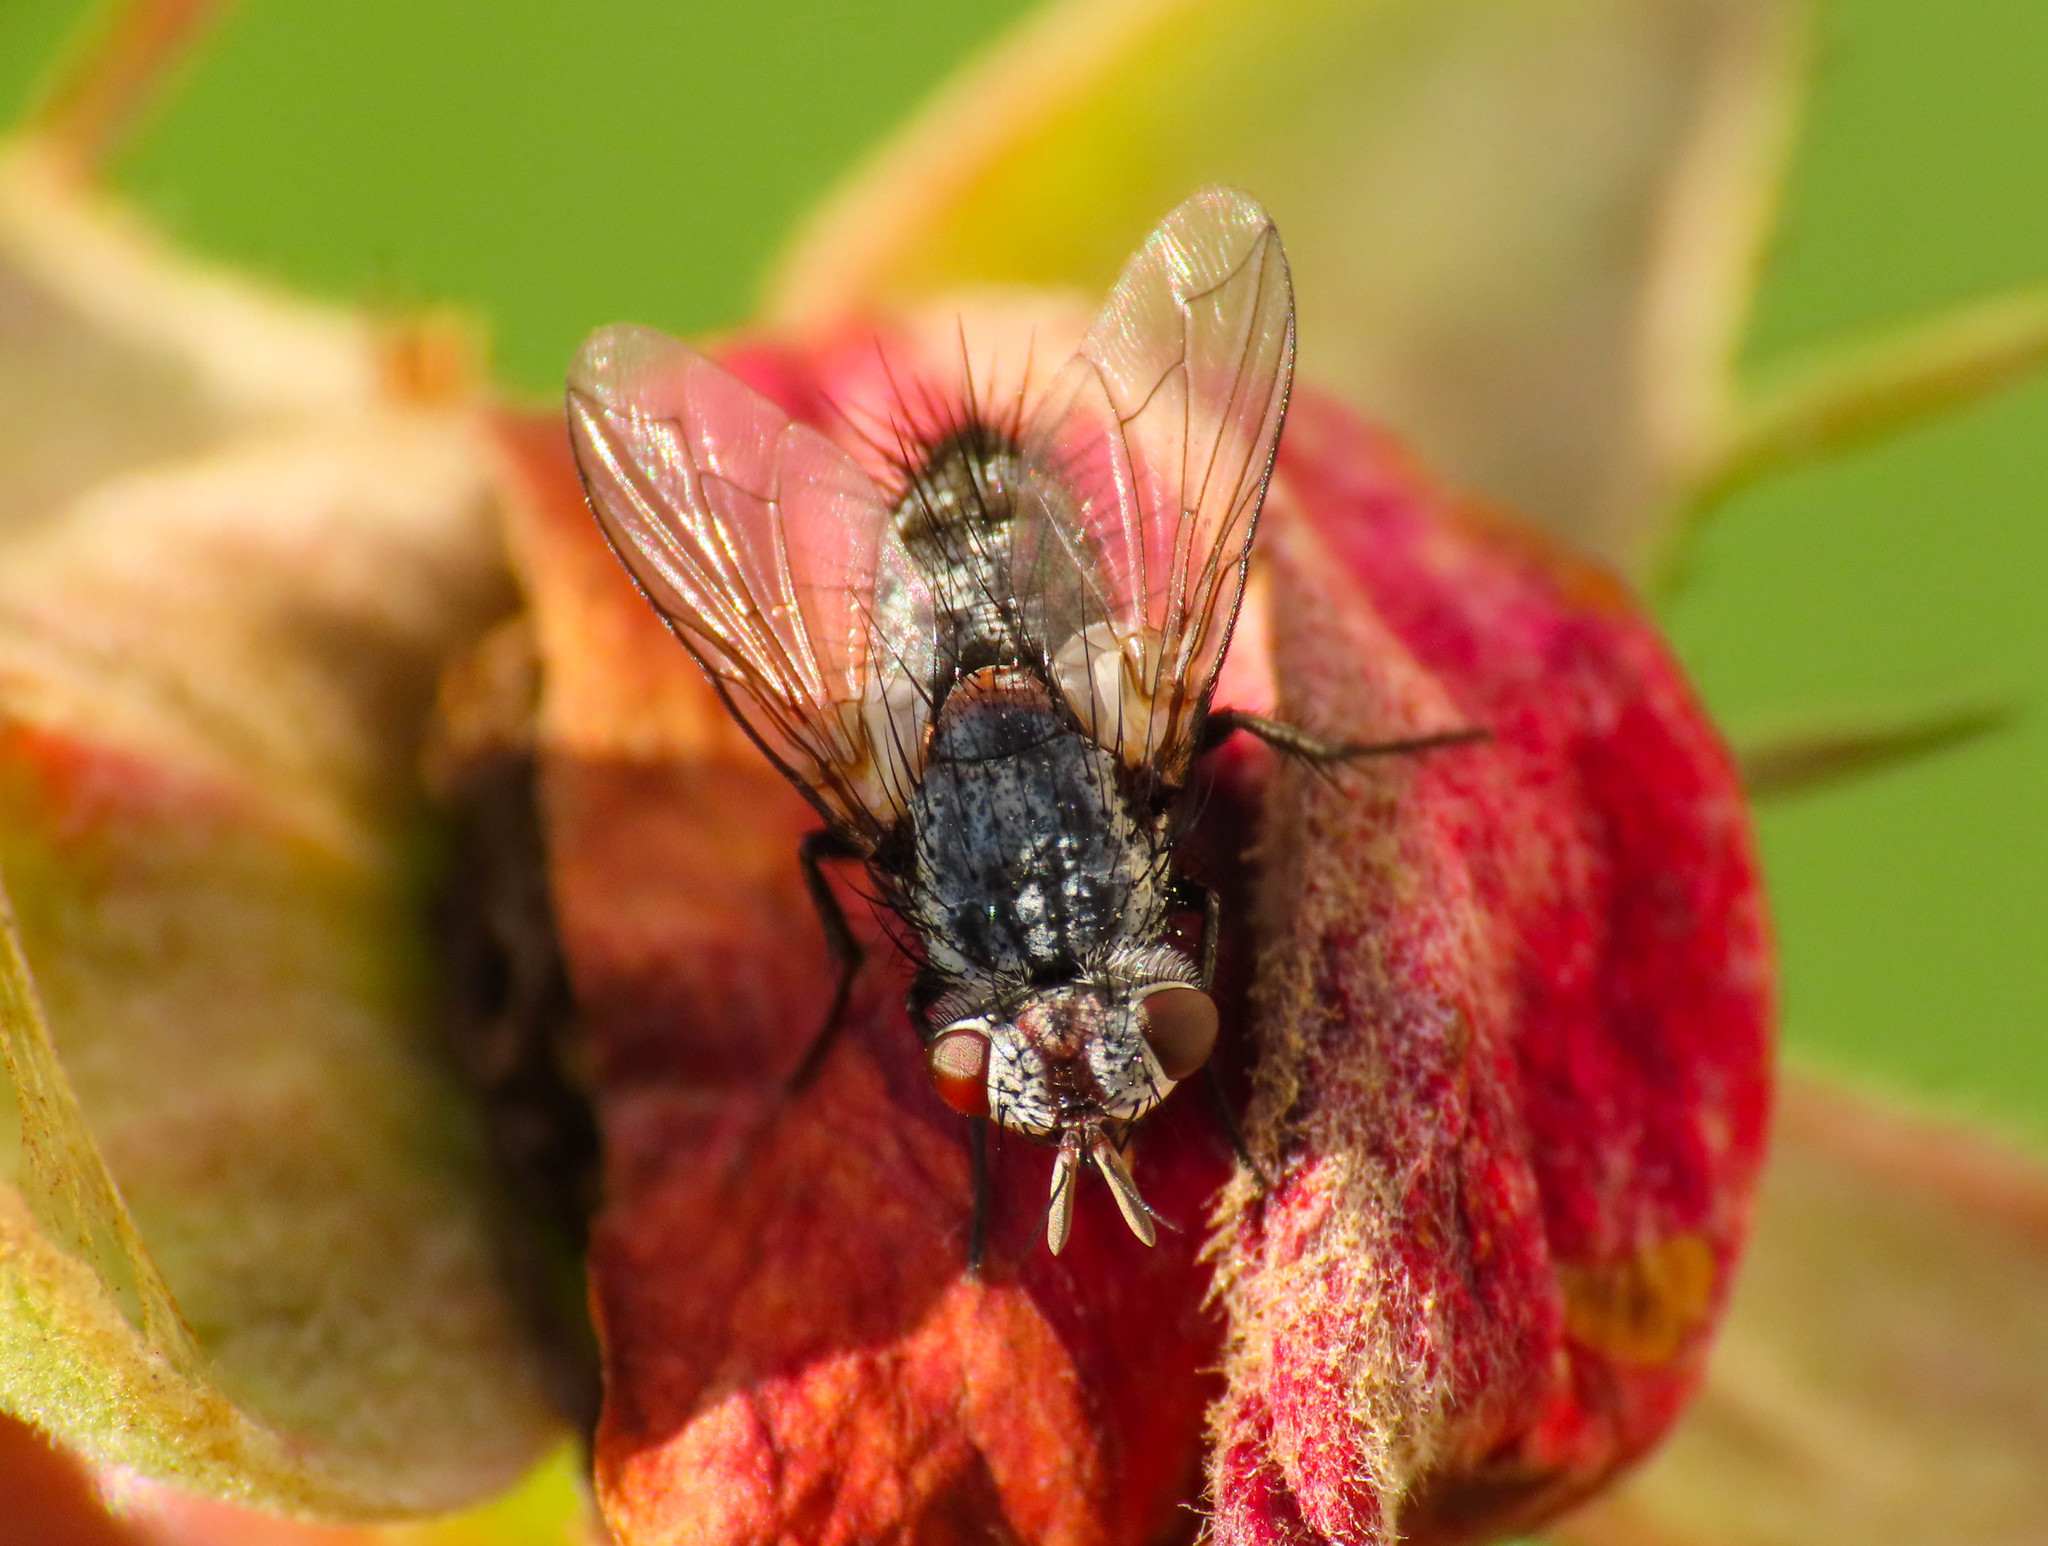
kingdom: Animalia
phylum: Arthropoda
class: Insecta
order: Diptera
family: Tachinidae
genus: Thelymorpha
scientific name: Thelymorpha marmorata
